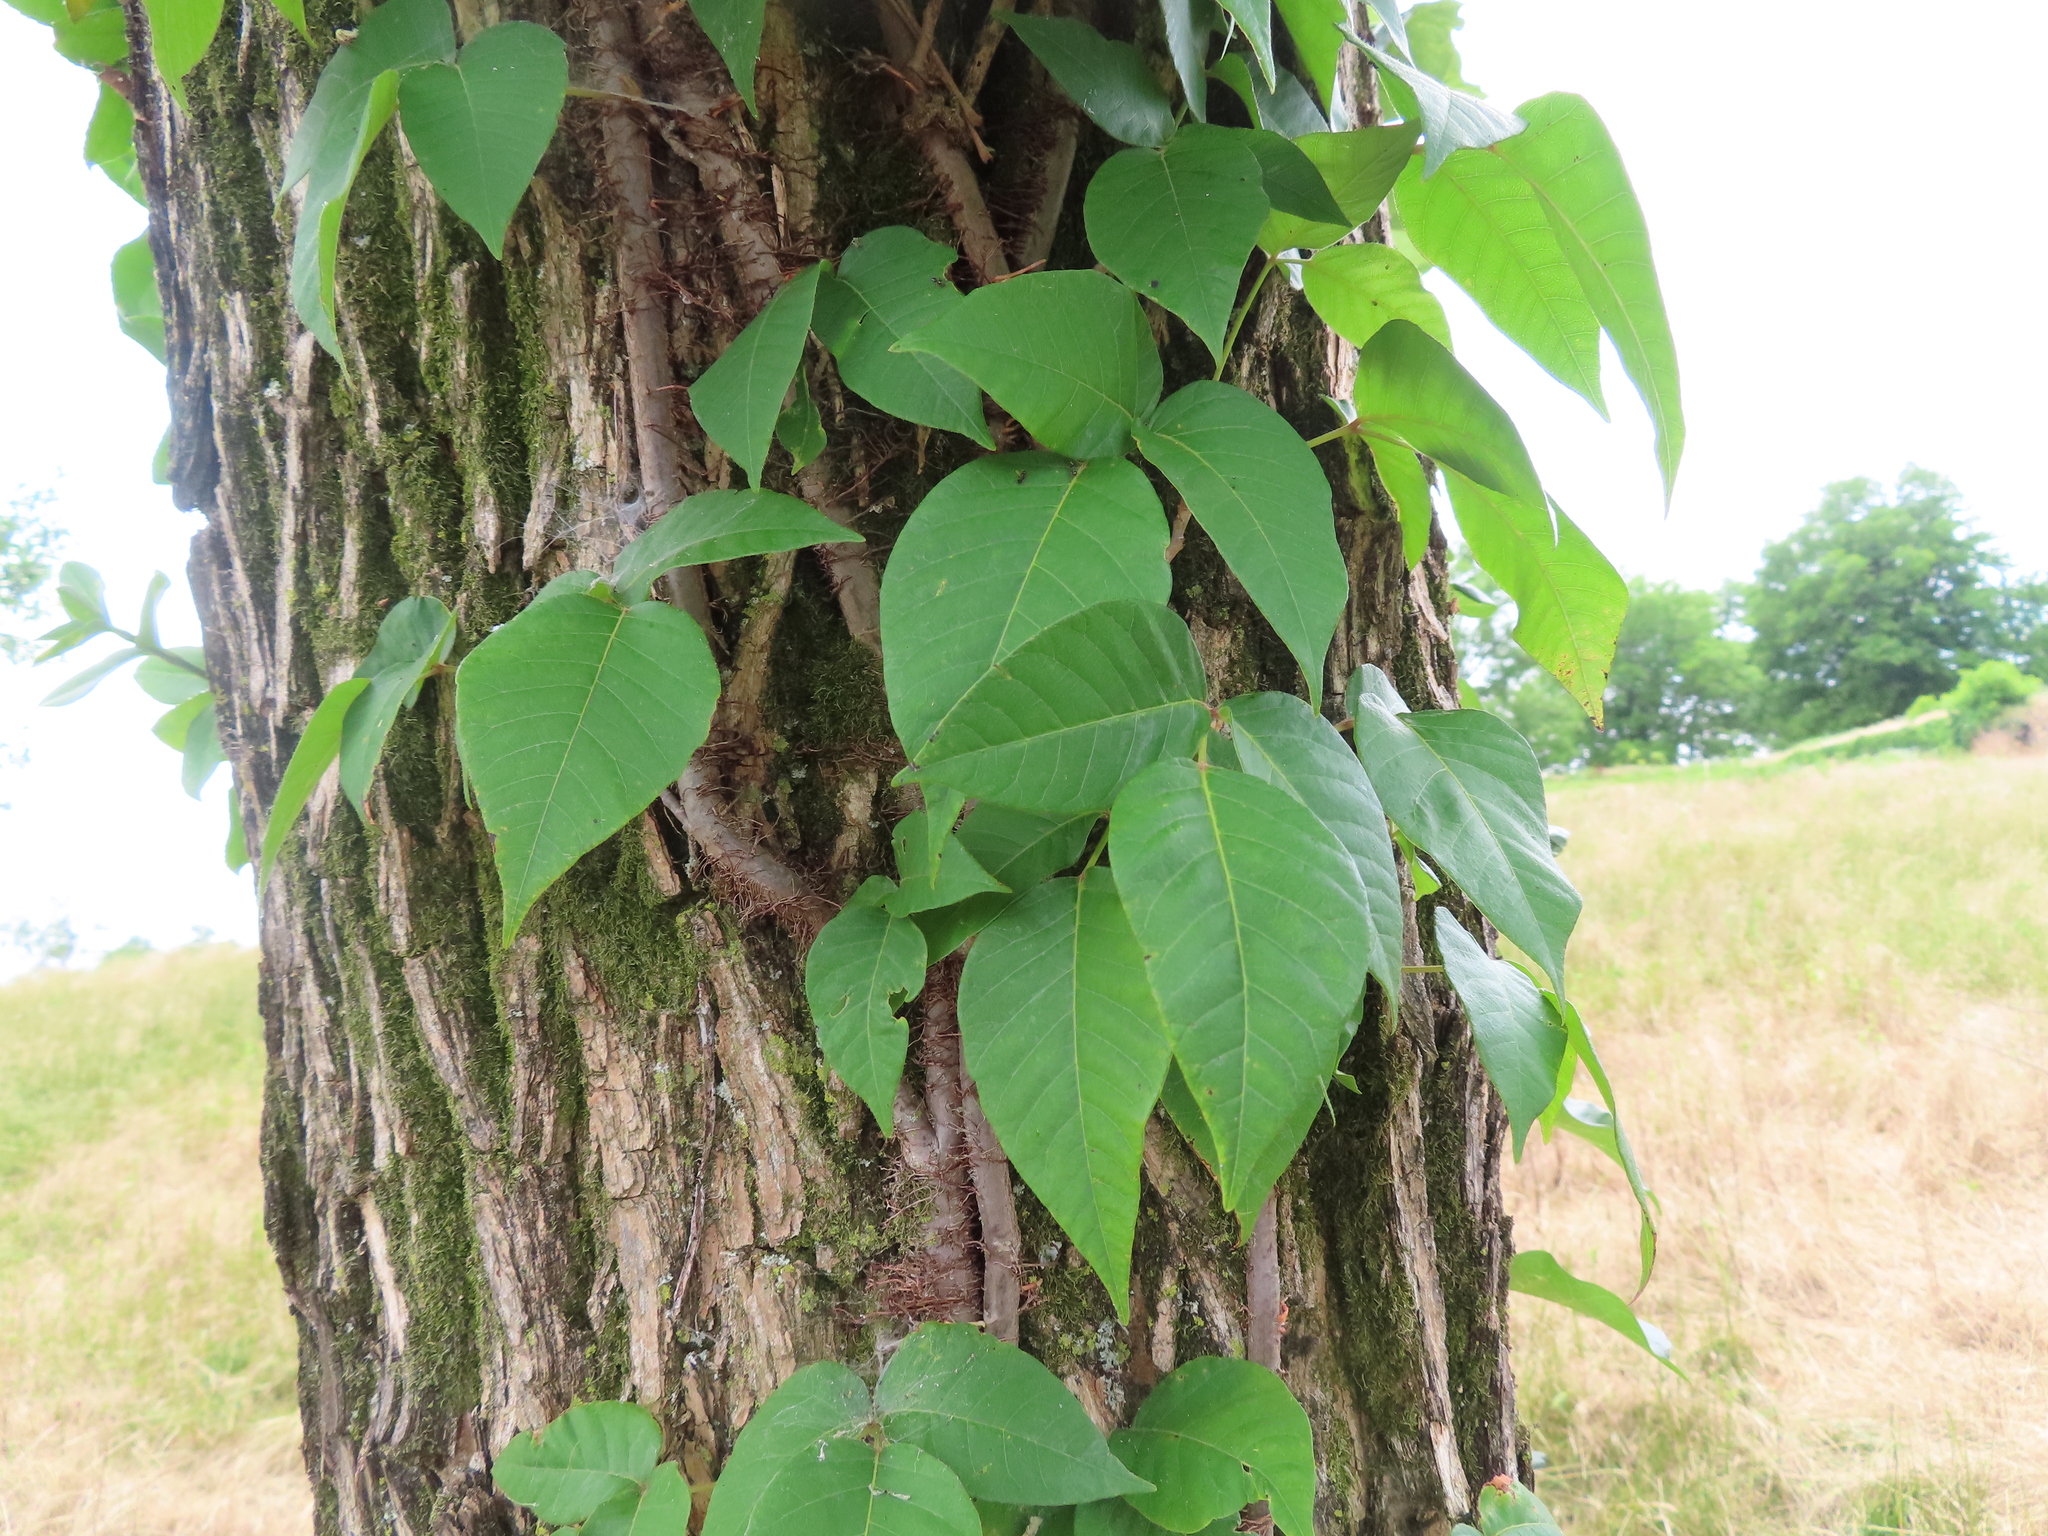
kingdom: Plantae
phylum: Tracheophyta
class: Magnoliopsida
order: Sapindales
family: Anacardiaceae
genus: Toxicodendron
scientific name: Toxicodendron radicans
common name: Poison ivy
